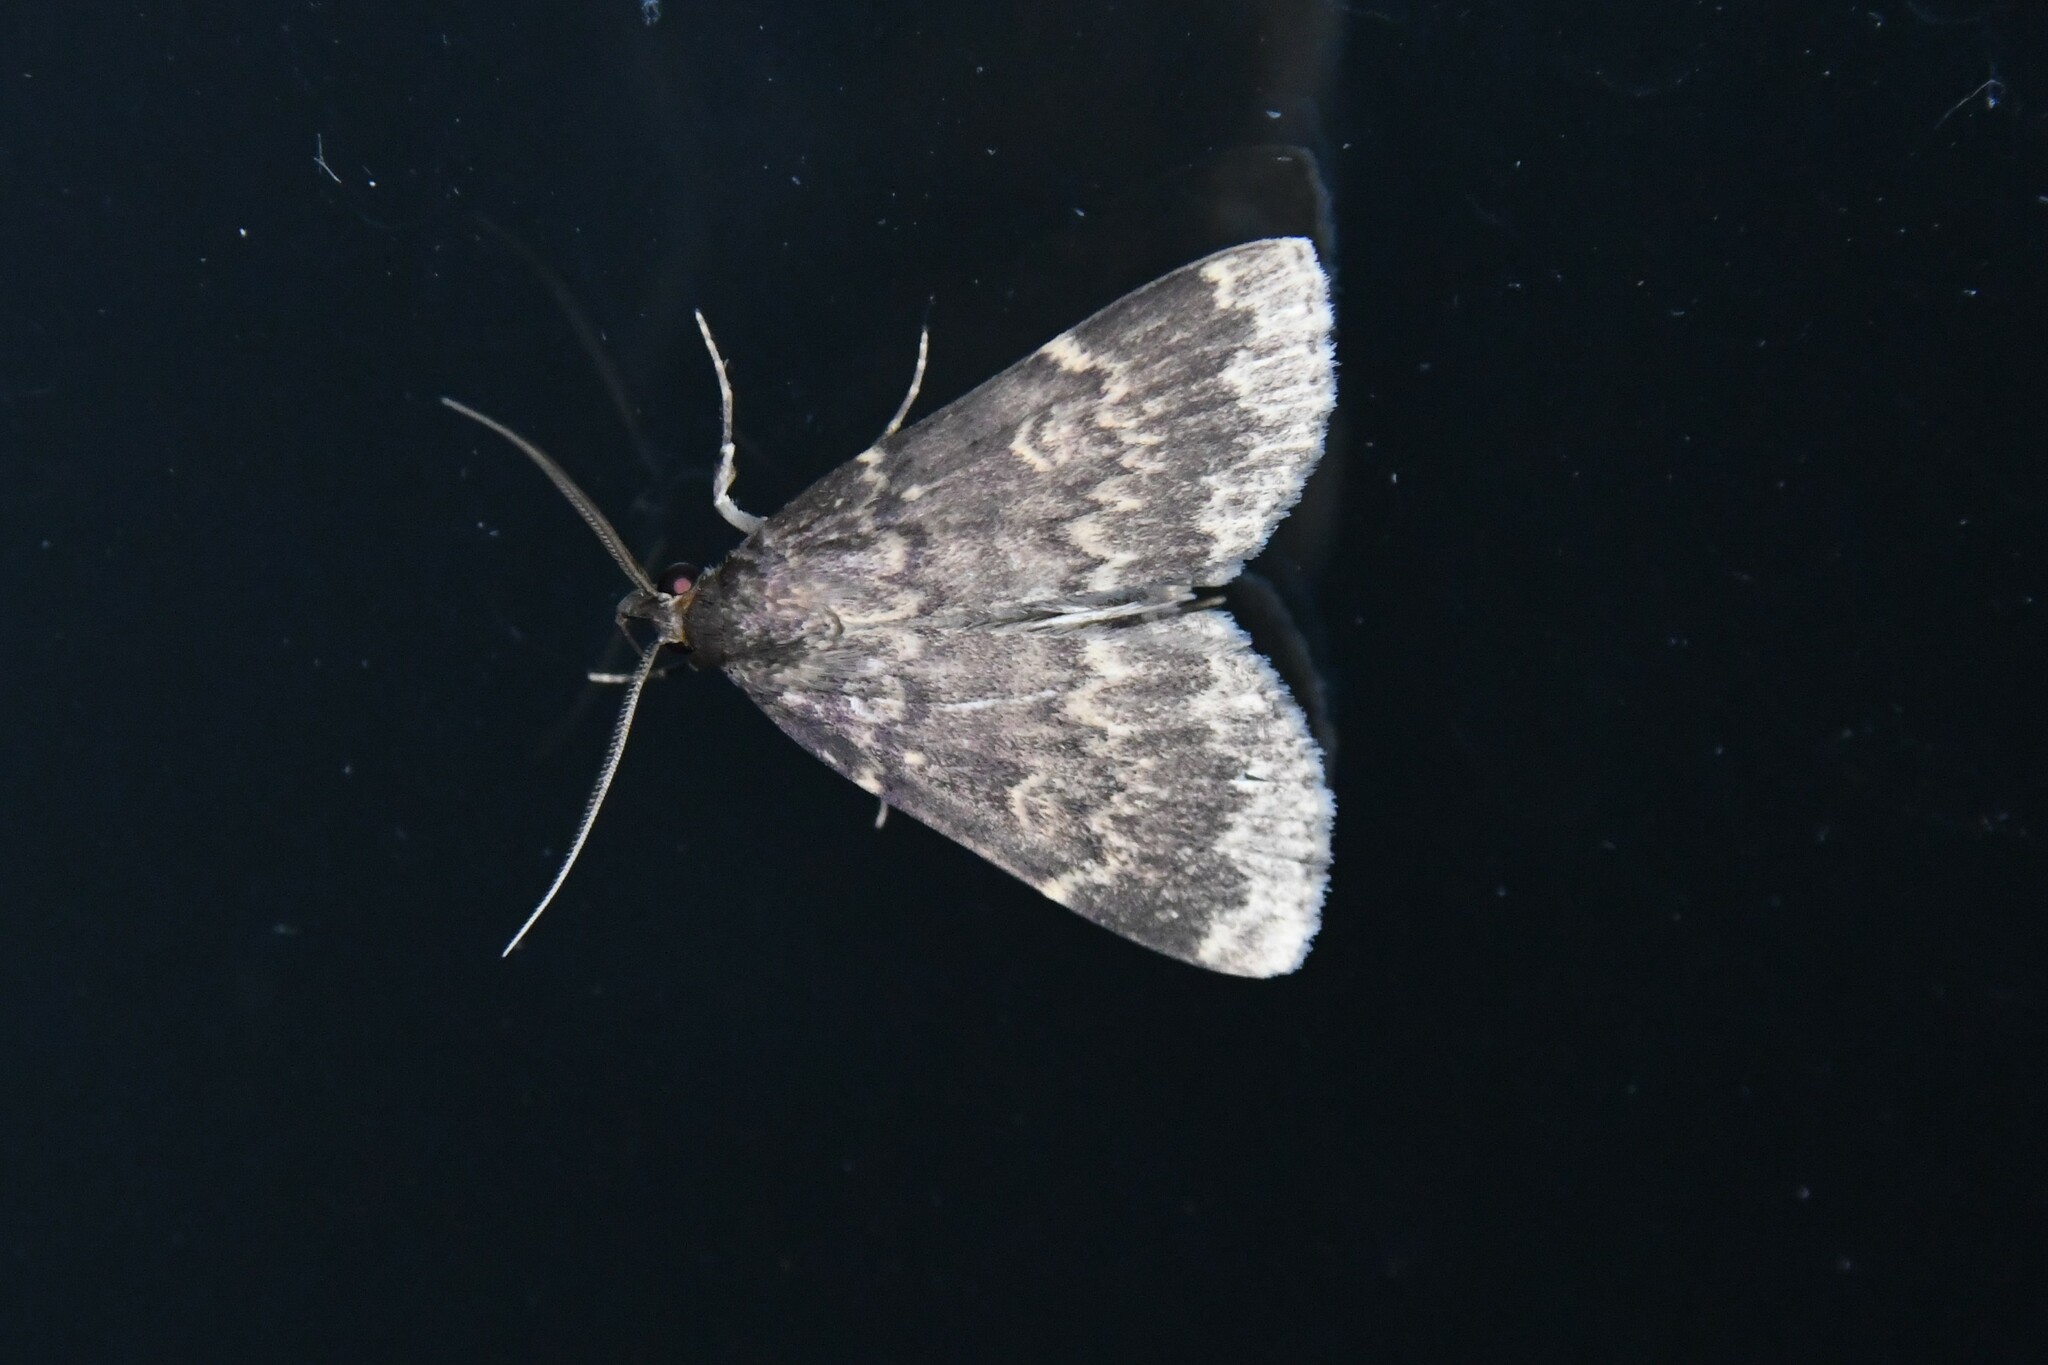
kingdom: Animalia
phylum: Arthropoda
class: Insecta
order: Lepidoptera
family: Erebidae
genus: Idia
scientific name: Idia lubricalis
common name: Twin-striped tabby
